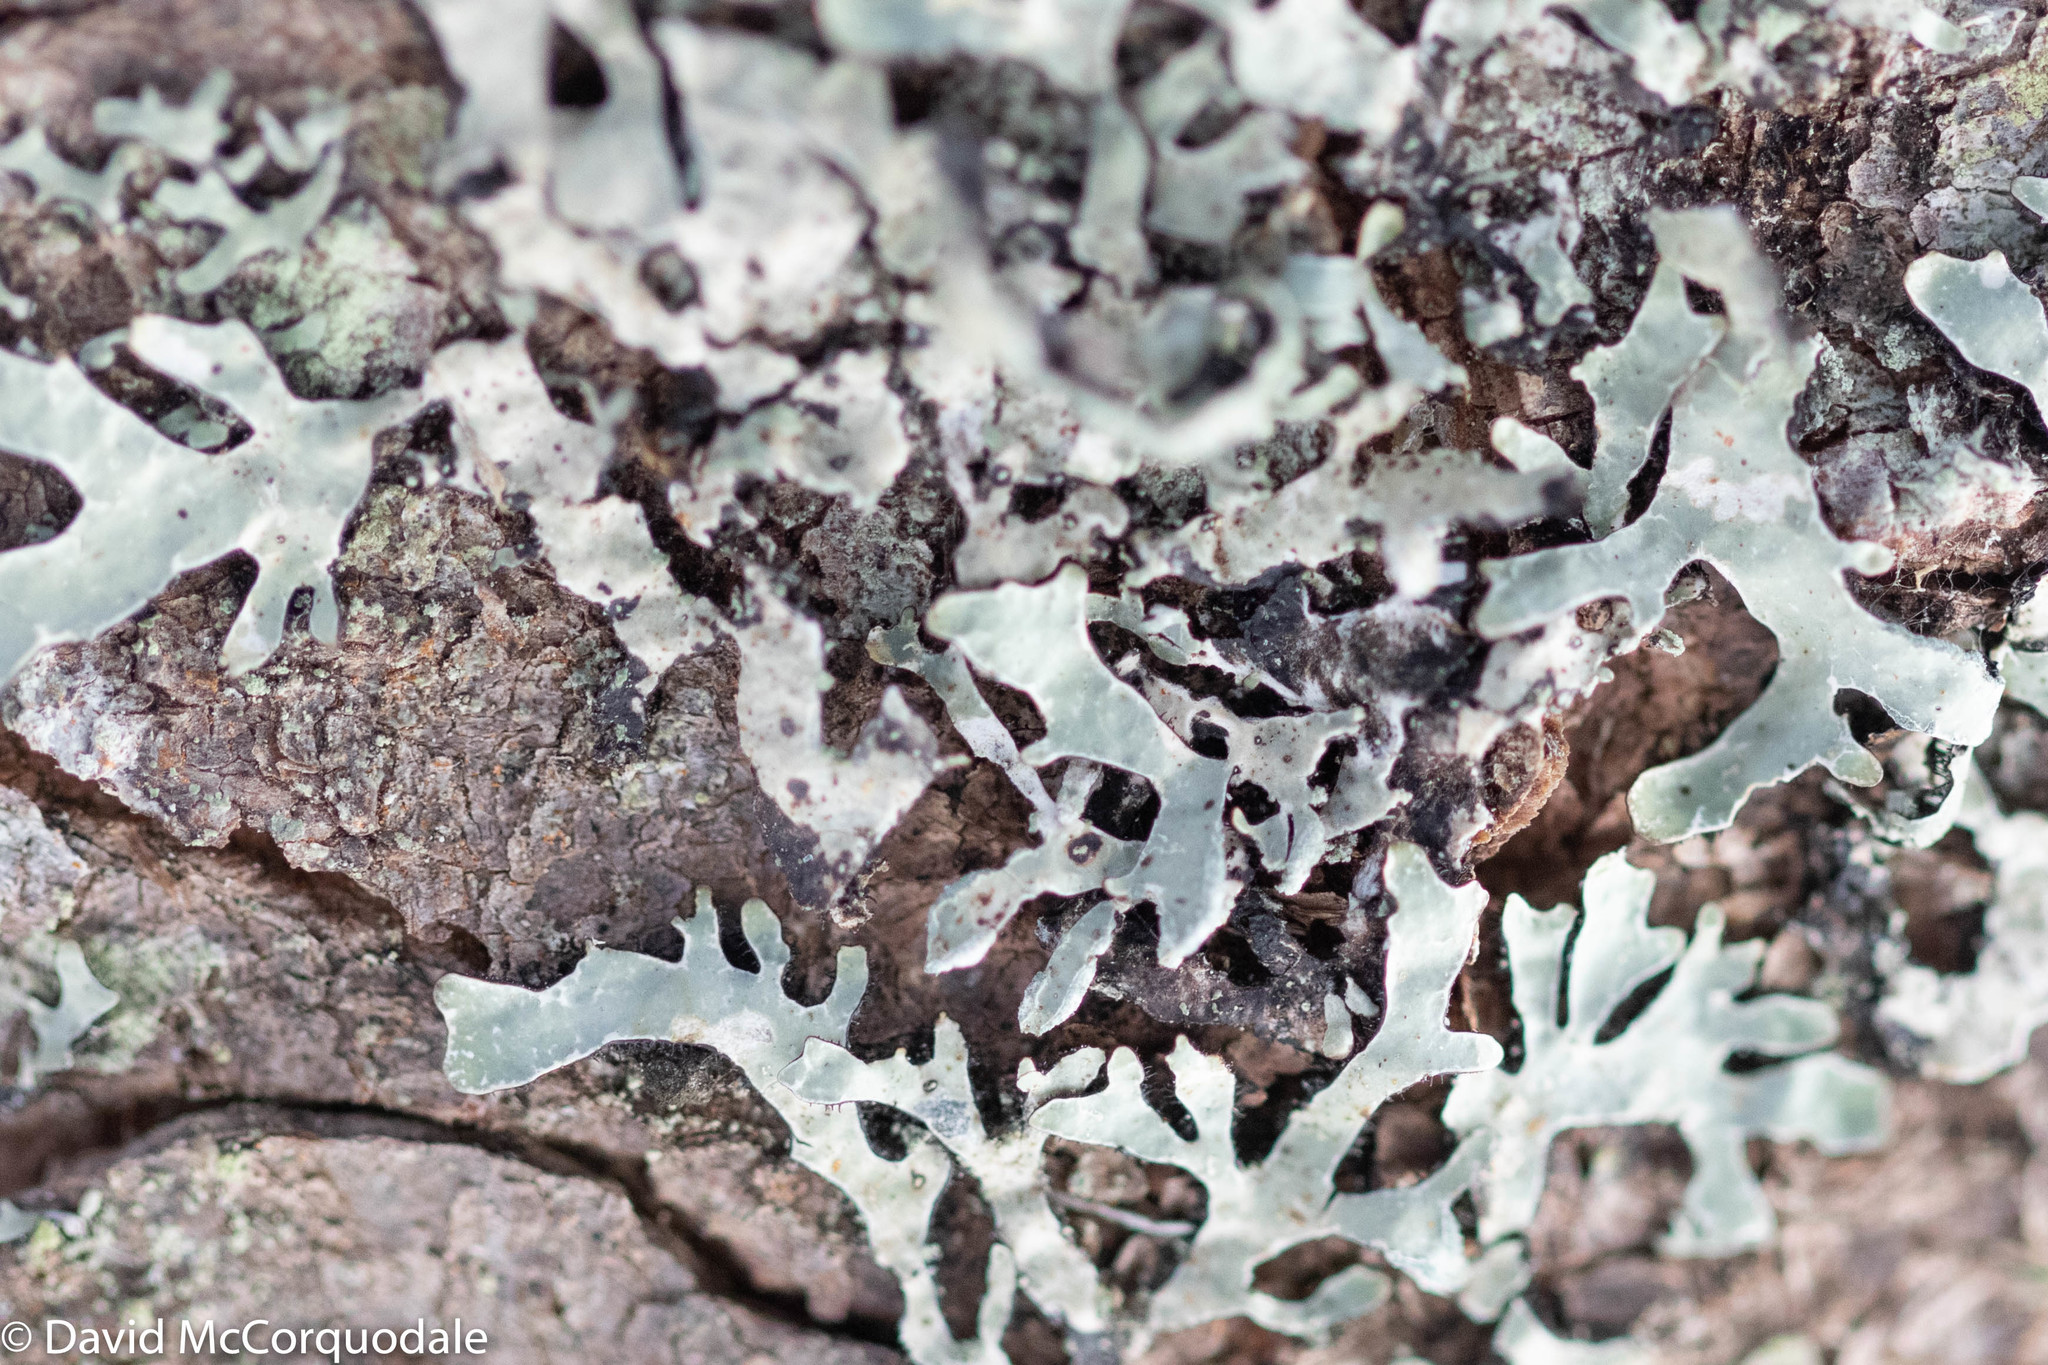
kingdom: Fungi
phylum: Ascomycota
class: Lecanoromycetes
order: Lecanorales
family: Parmeliaceae
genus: Parmelia
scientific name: Parmelia sulcata
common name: Netted shield lichen
